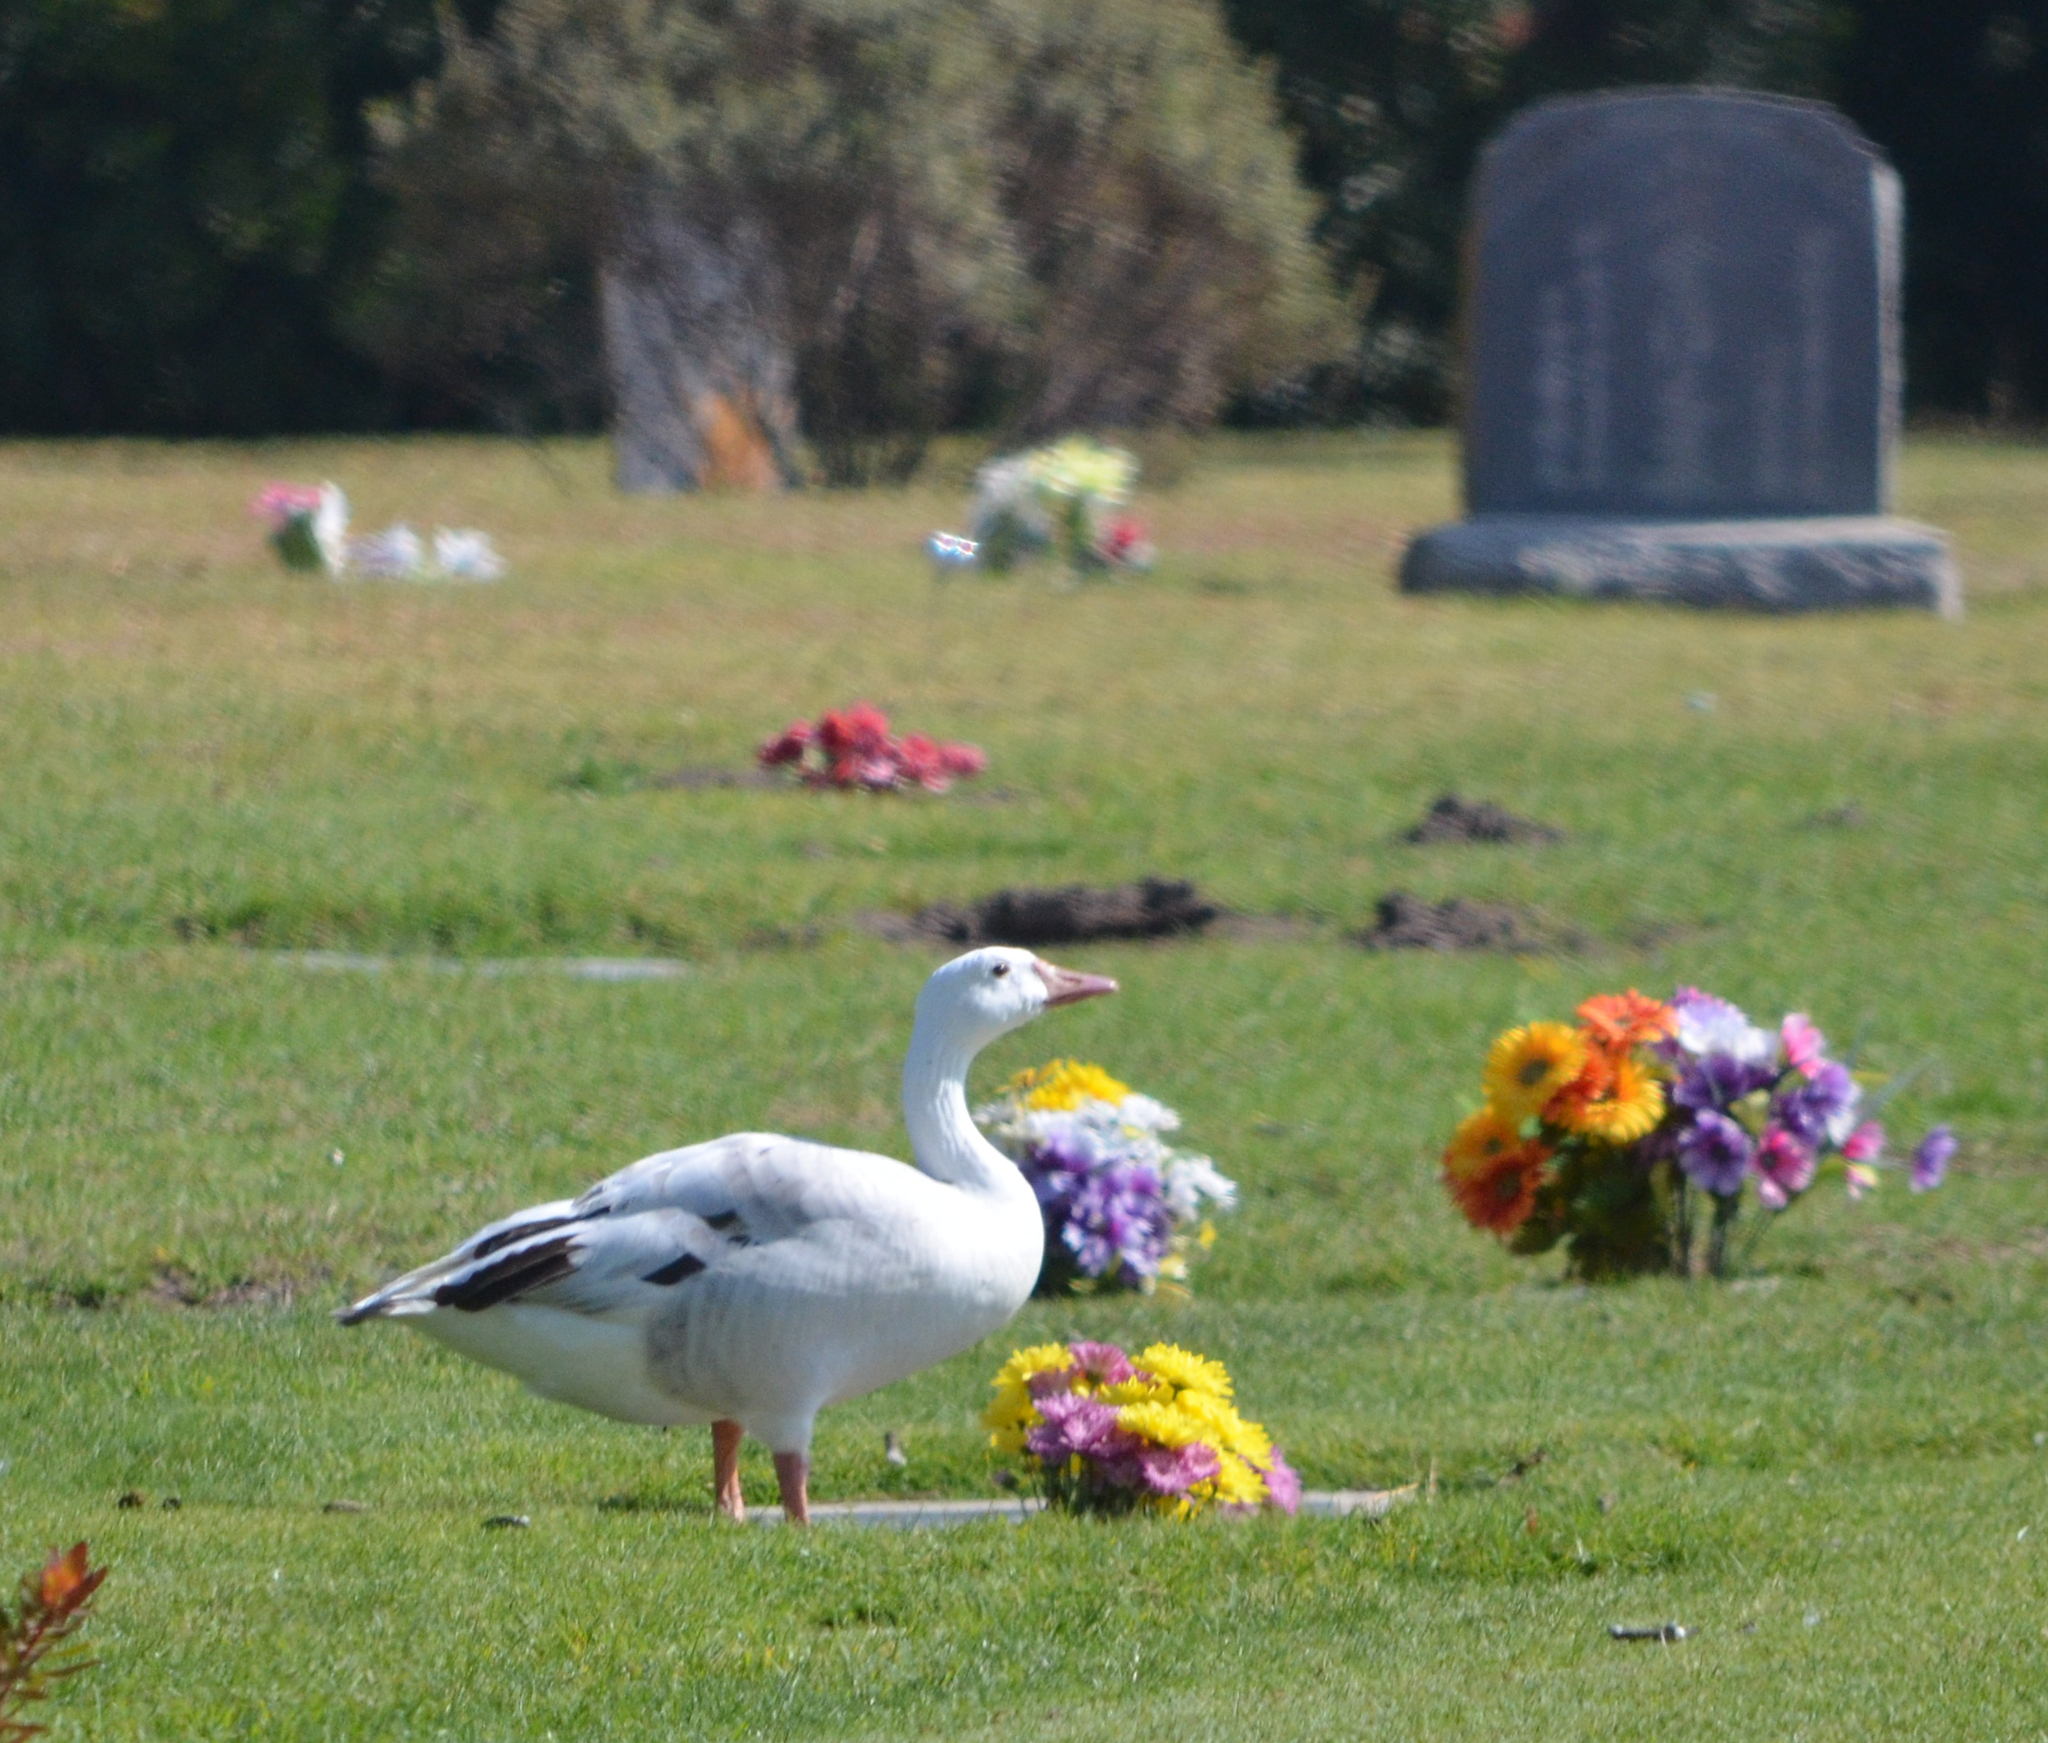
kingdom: Animalia
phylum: Chordata
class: Aves
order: Anseriformes
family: Anatidae
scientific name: Anatidae
